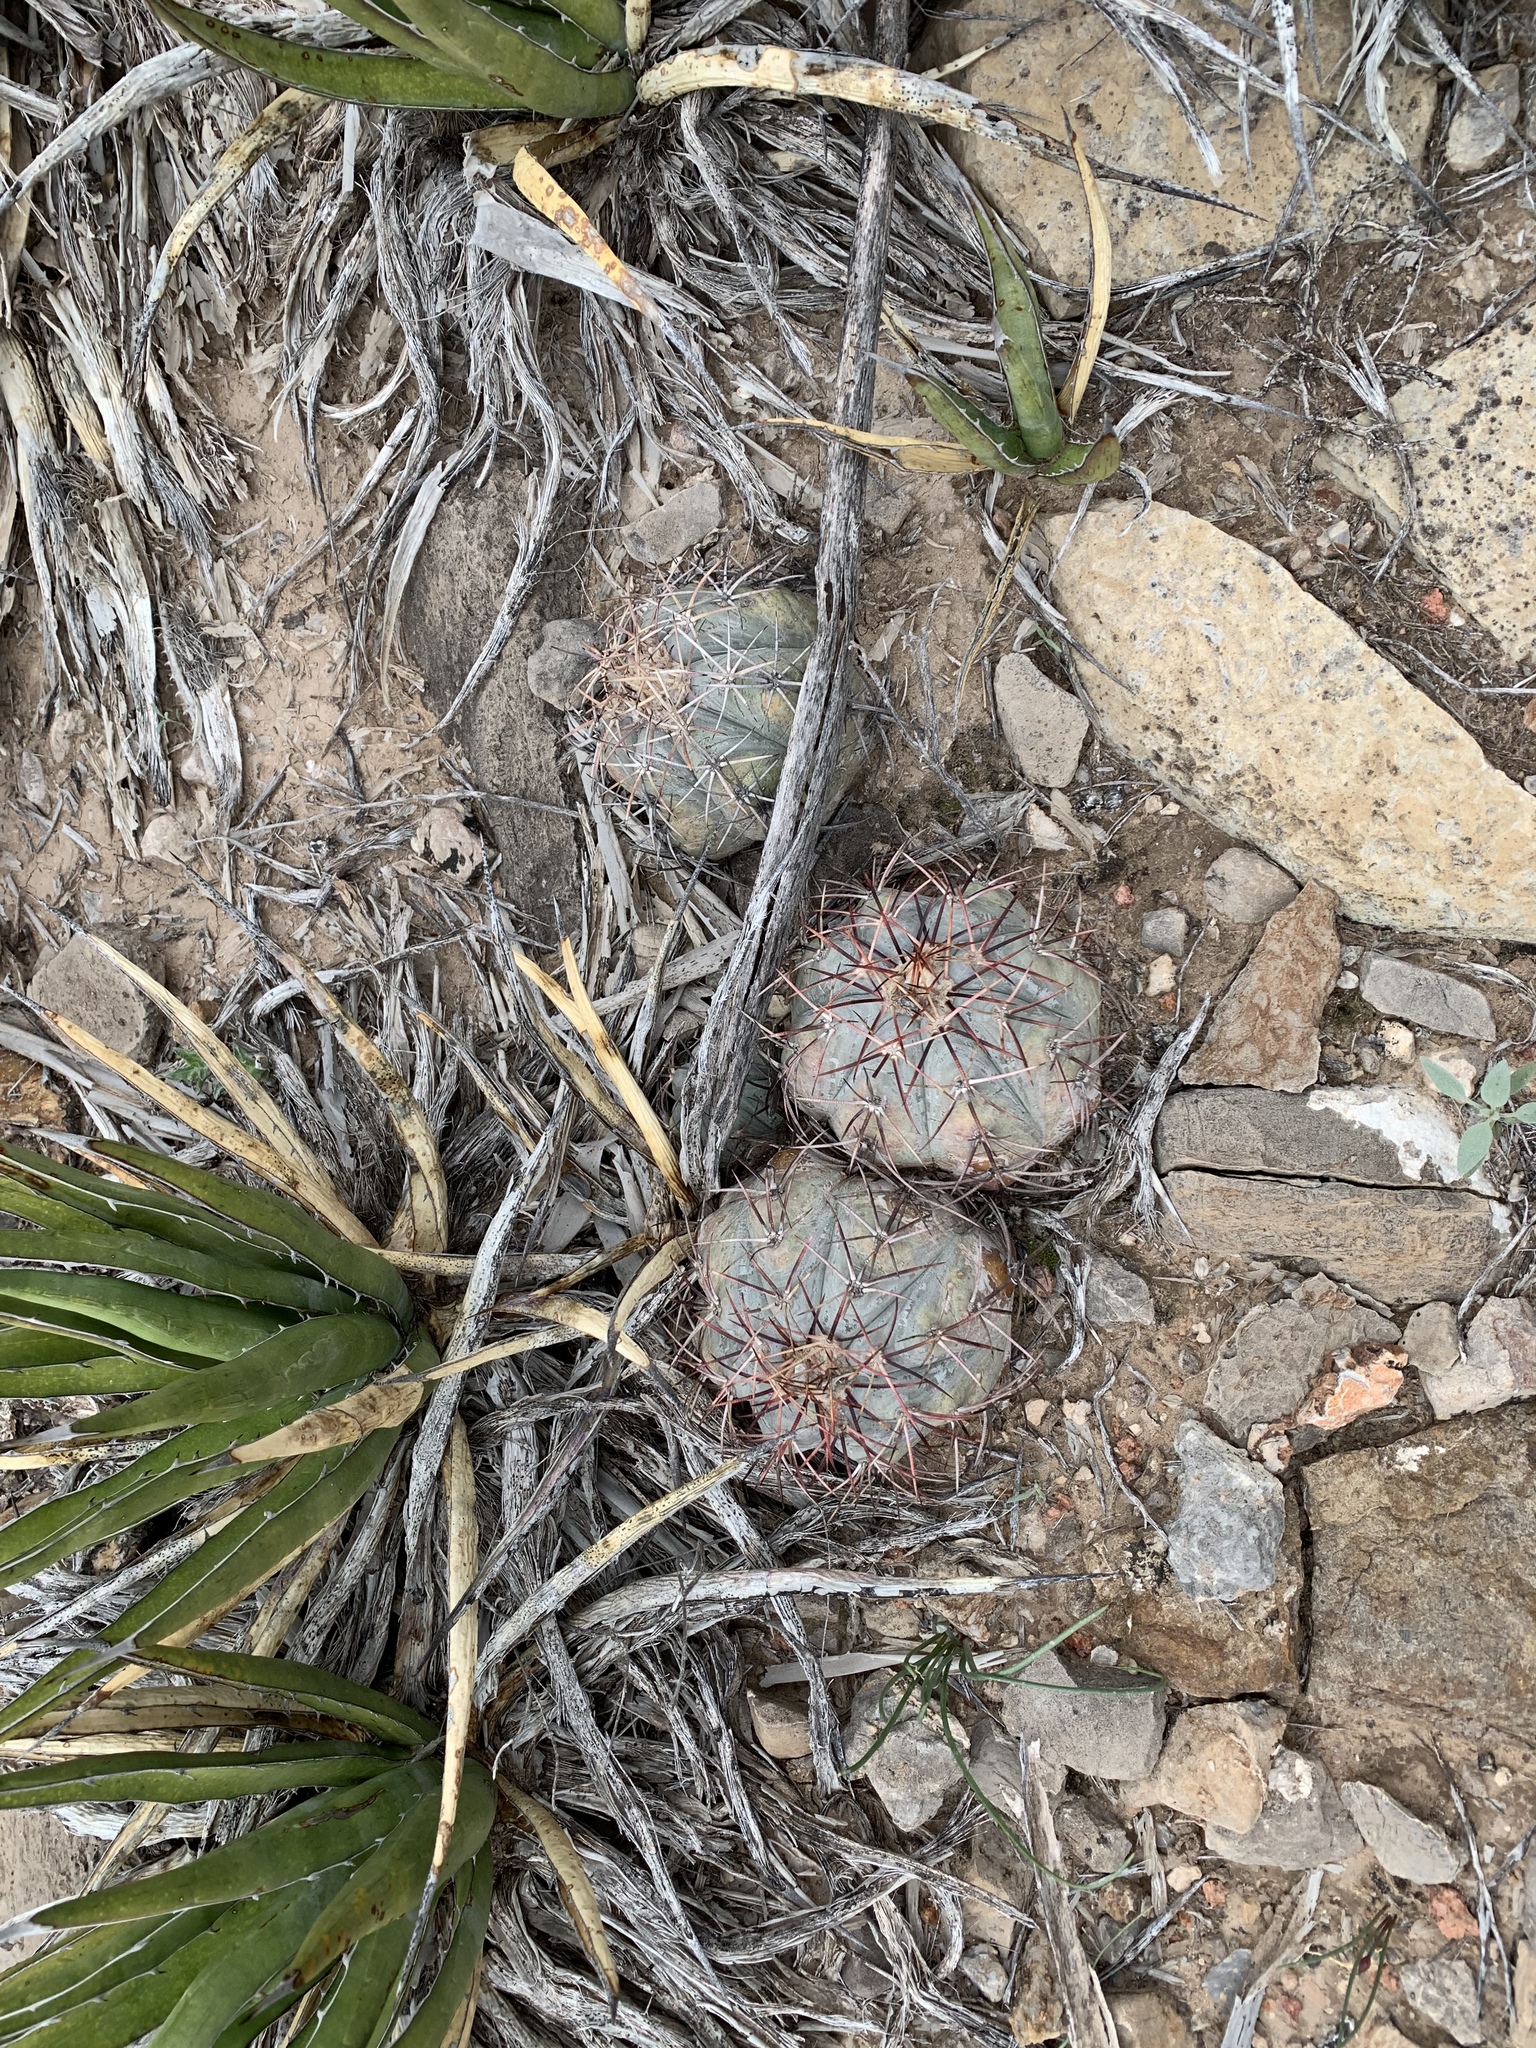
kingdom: Plantae
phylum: Tracheophyta
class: Magnoliopsida
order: Caryophyllales
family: Cactaceae
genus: Echinocactus
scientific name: Echinocactus horizonthalonius
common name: Devilshead
